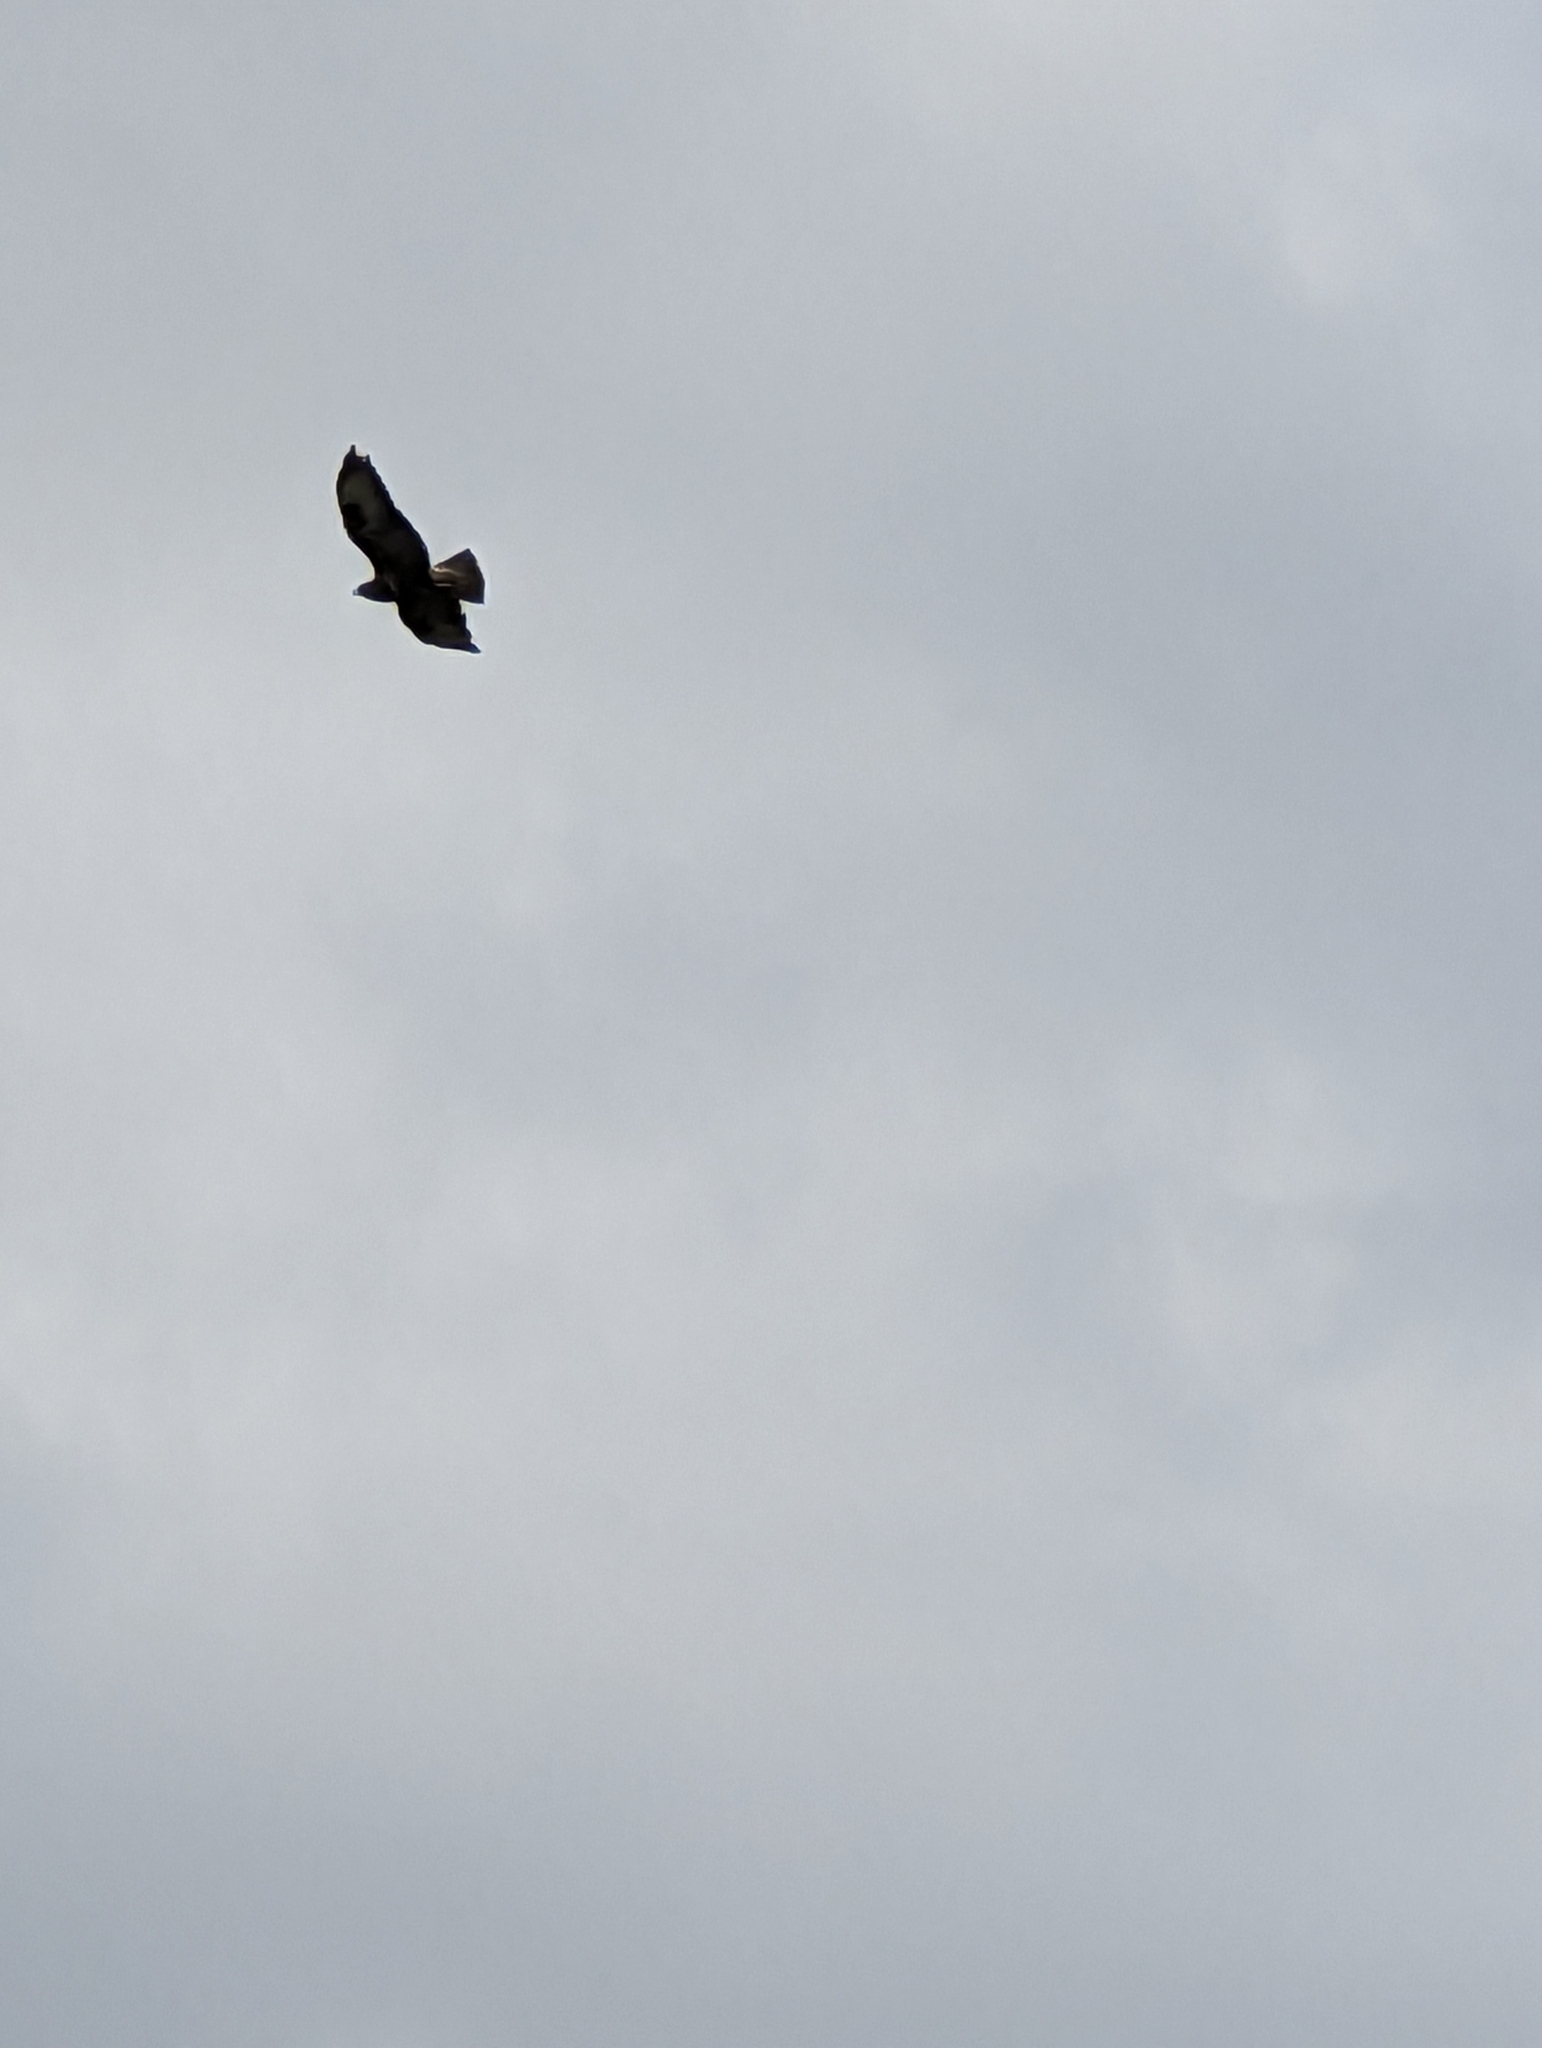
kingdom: Animalia
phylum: Chordata
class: Aves
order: Accipitriformes
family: Accipitridae
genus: Buteo
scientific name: Buteo buteo
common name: Common buzzard
